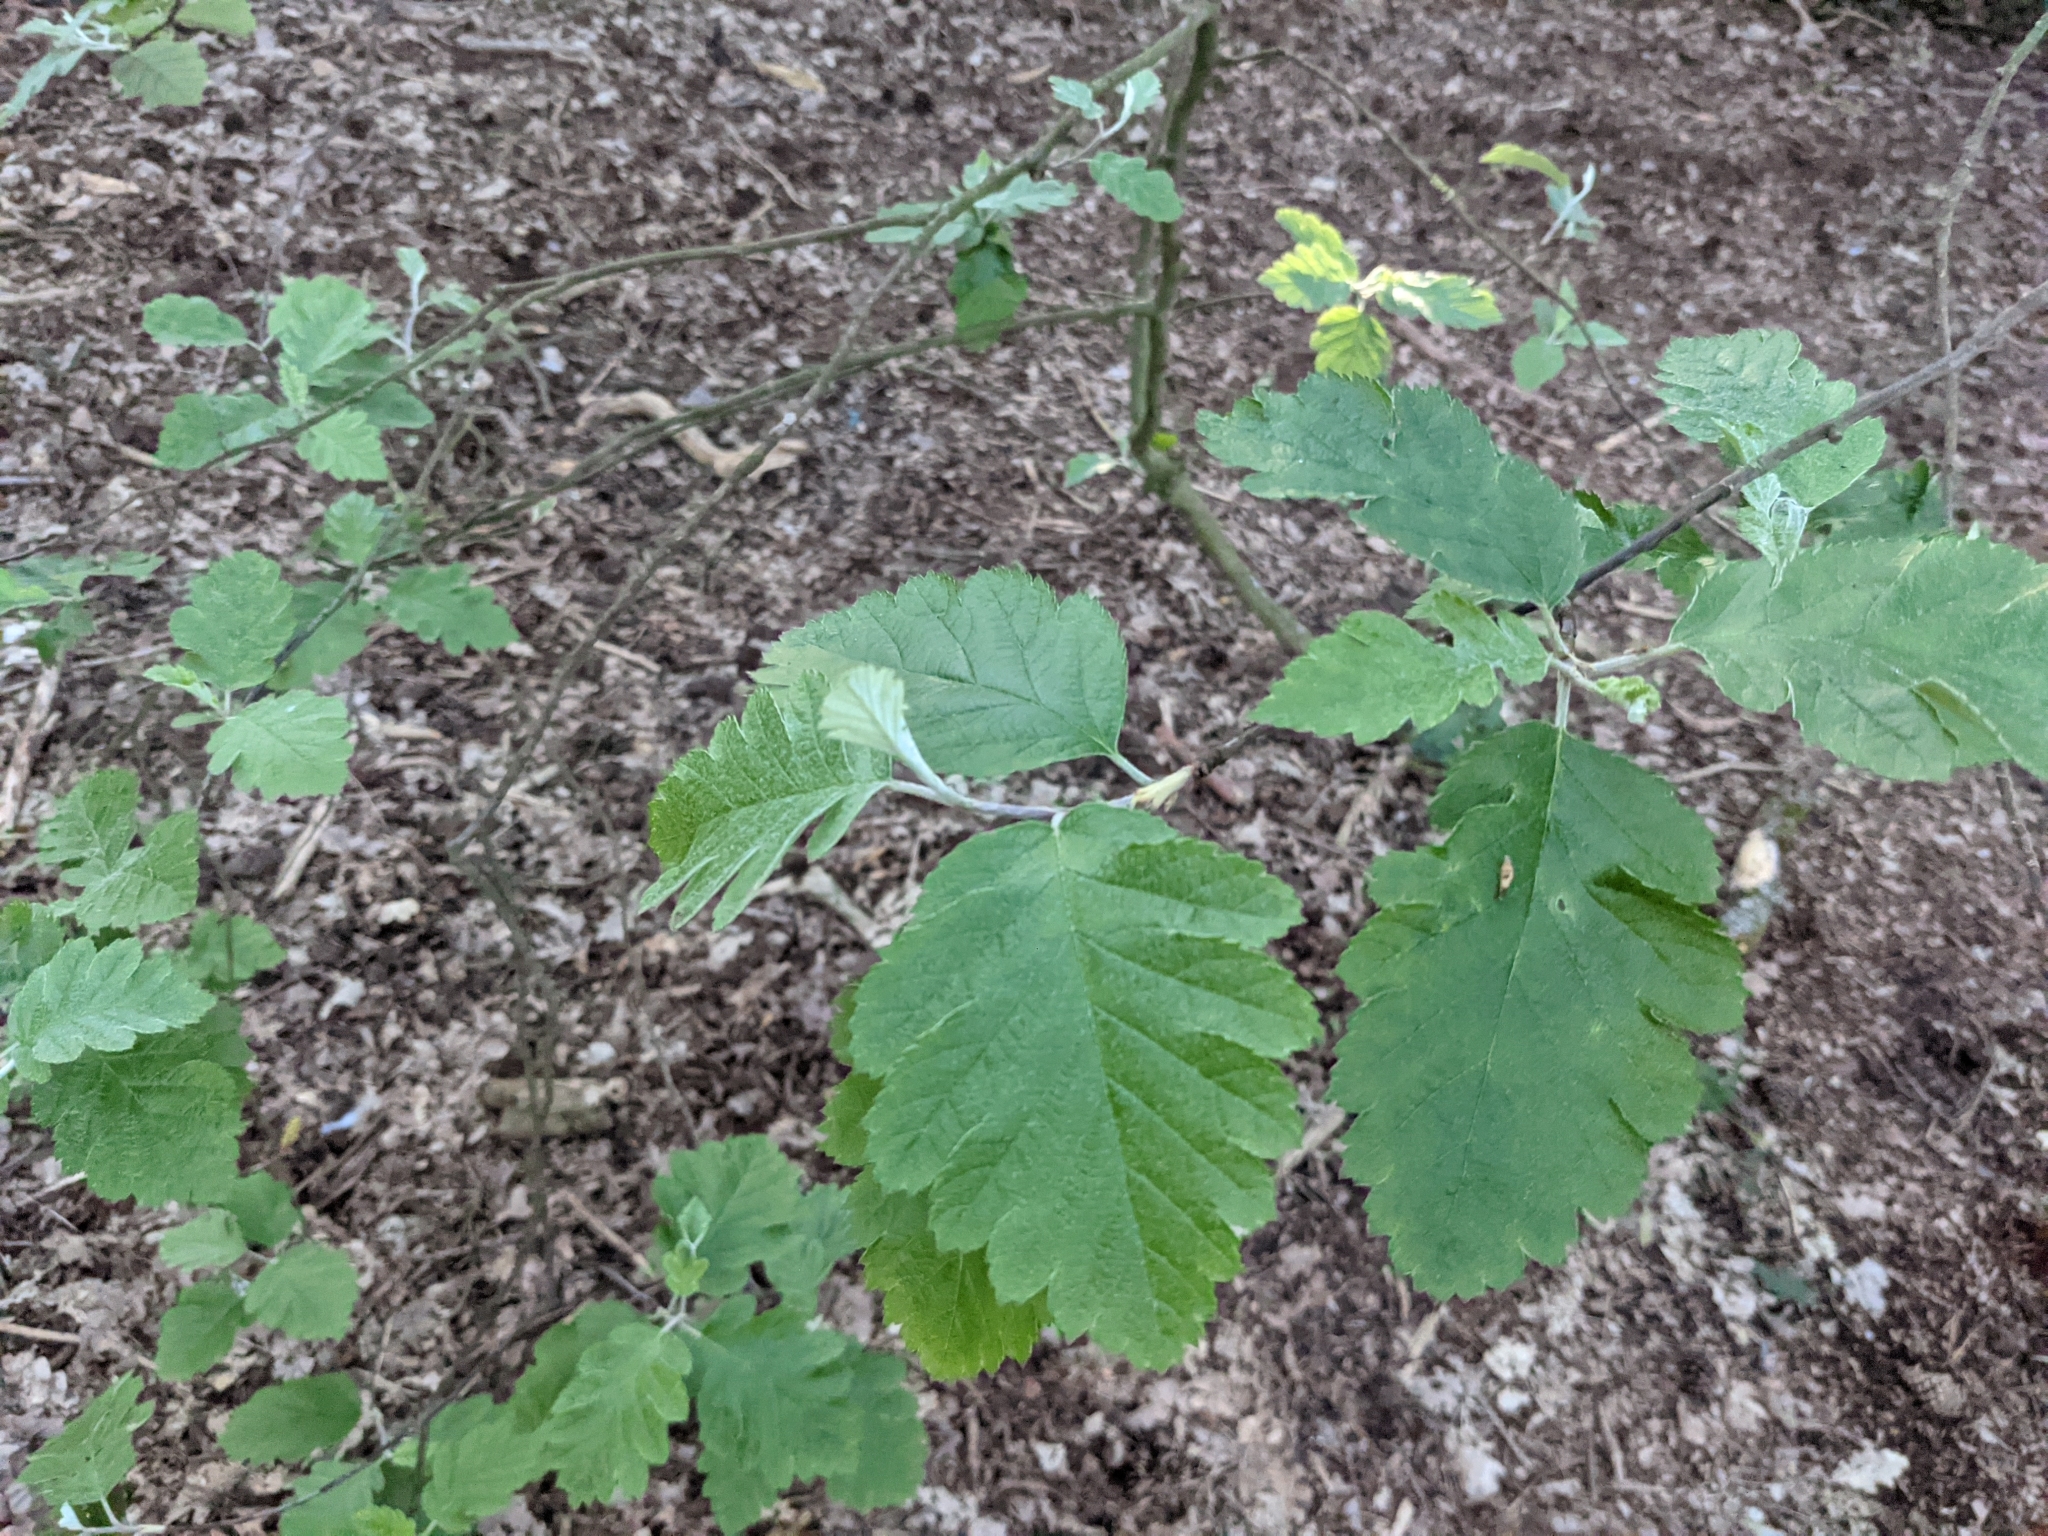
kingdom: Plantae
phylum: Tracheophyta
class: Magnoliopsida
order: Rosales
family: Rosaceae
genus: Scandosorbus
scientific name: Scandosorbus intermedia
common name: Swedish whitebeam
